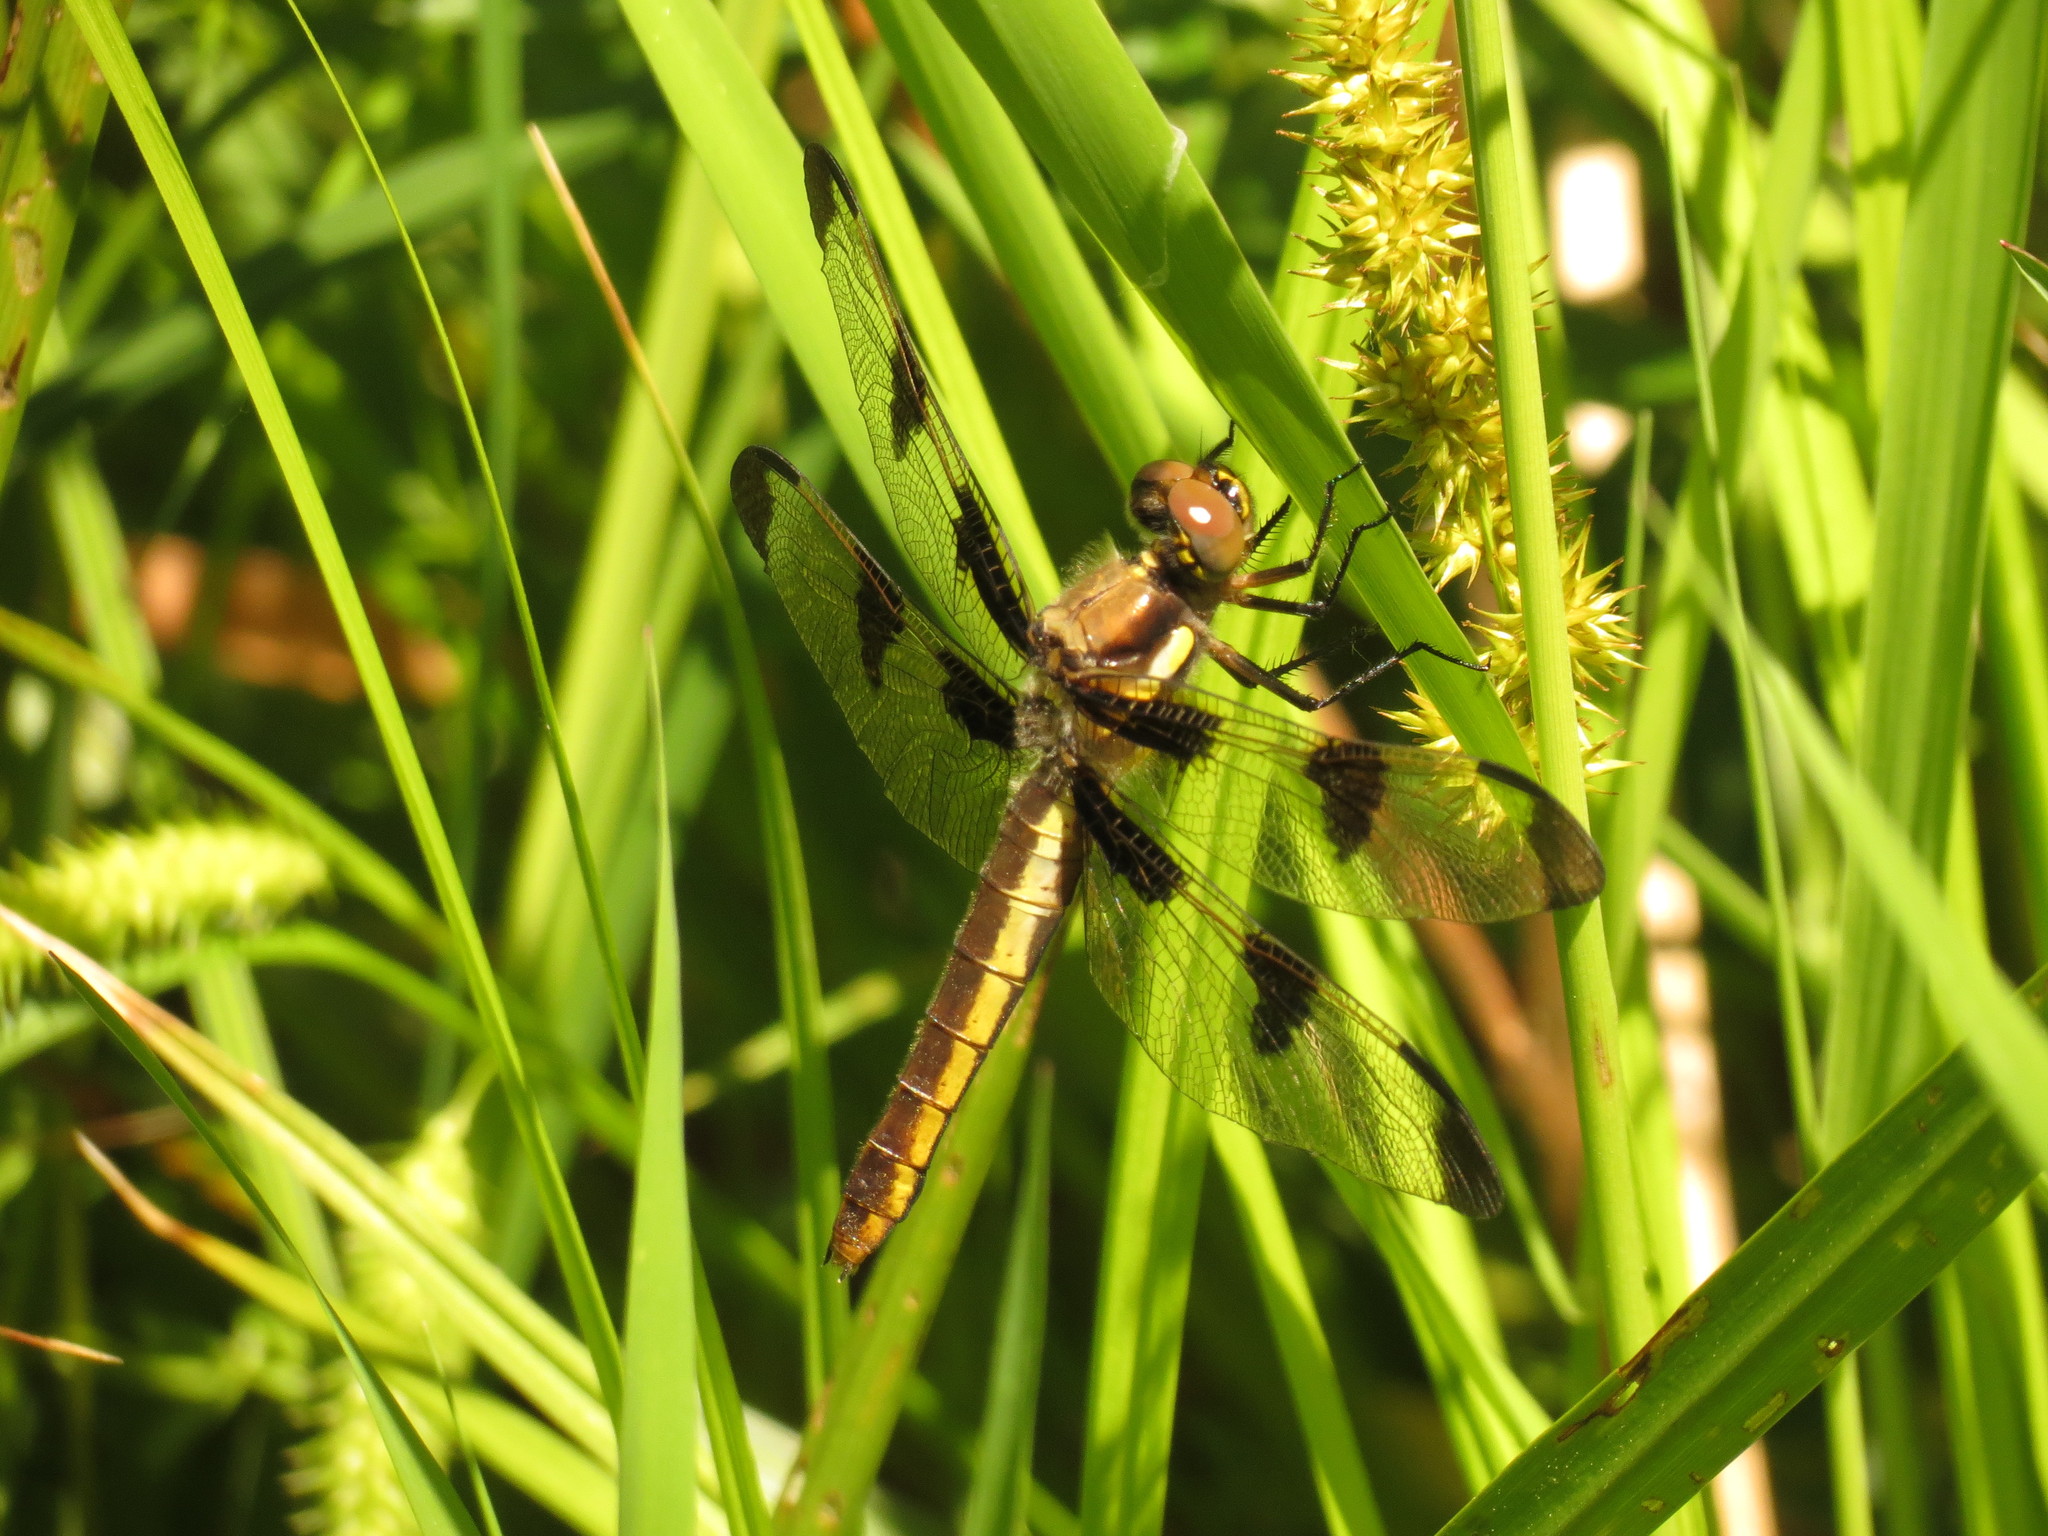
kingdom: Animalia
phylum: Arthropoda
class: Insecta
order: Odonata
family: Libellulidae
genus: Libellula
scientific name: Libellula pulchella
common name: Twelve-spotted skimmer
